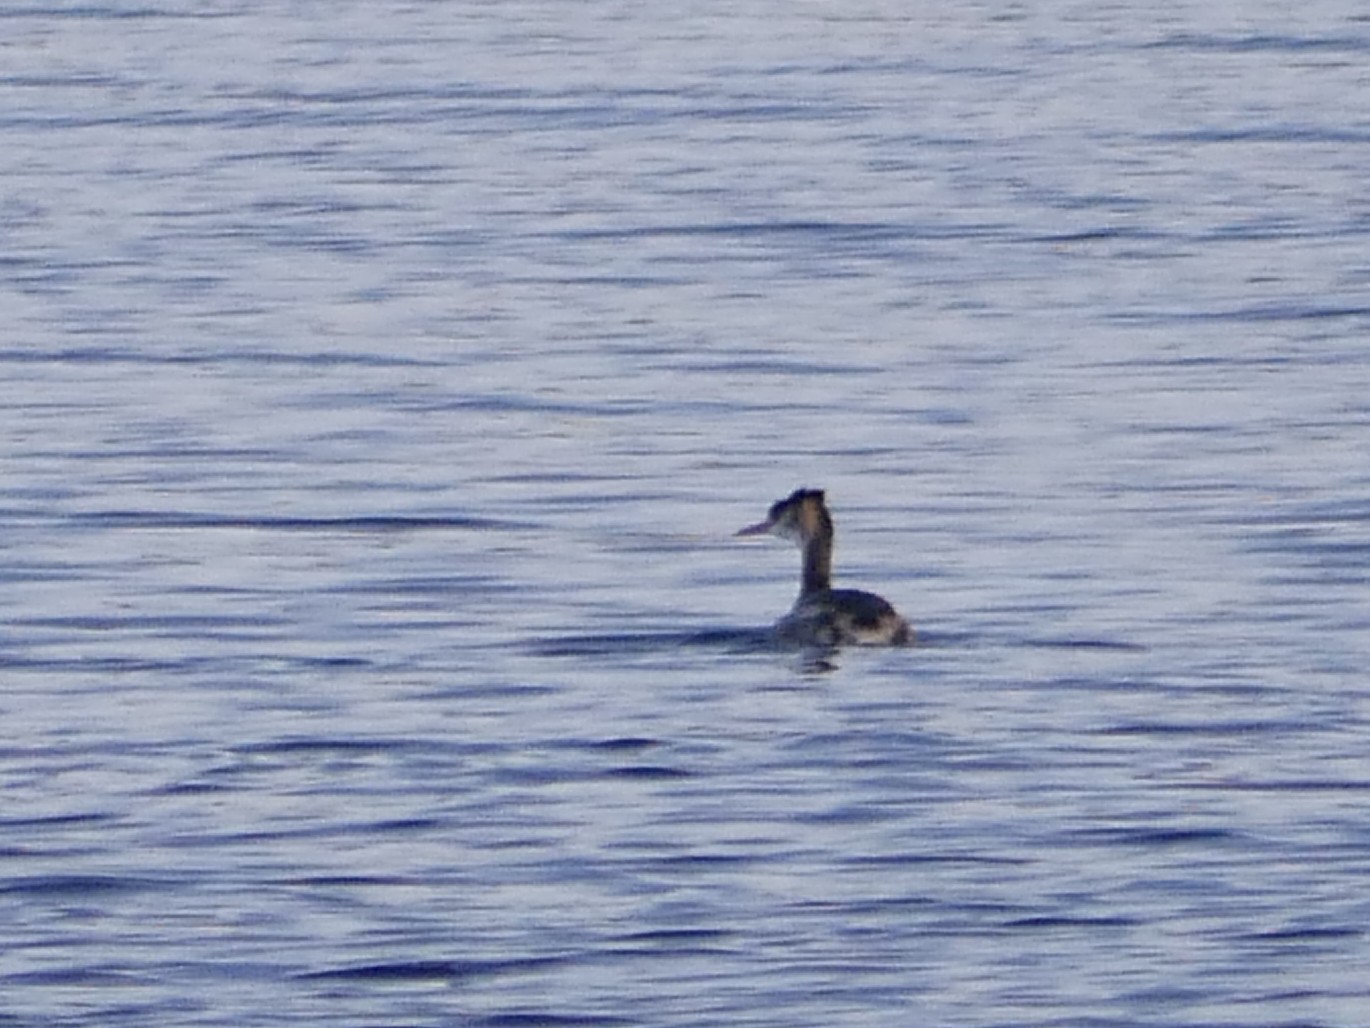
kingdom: Animalia
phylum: Chordata
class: Aves
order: Podicipediformes
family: Podicipedidae
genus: Podiceps
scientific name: Podiceps cristatus
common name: Great crested grebe
